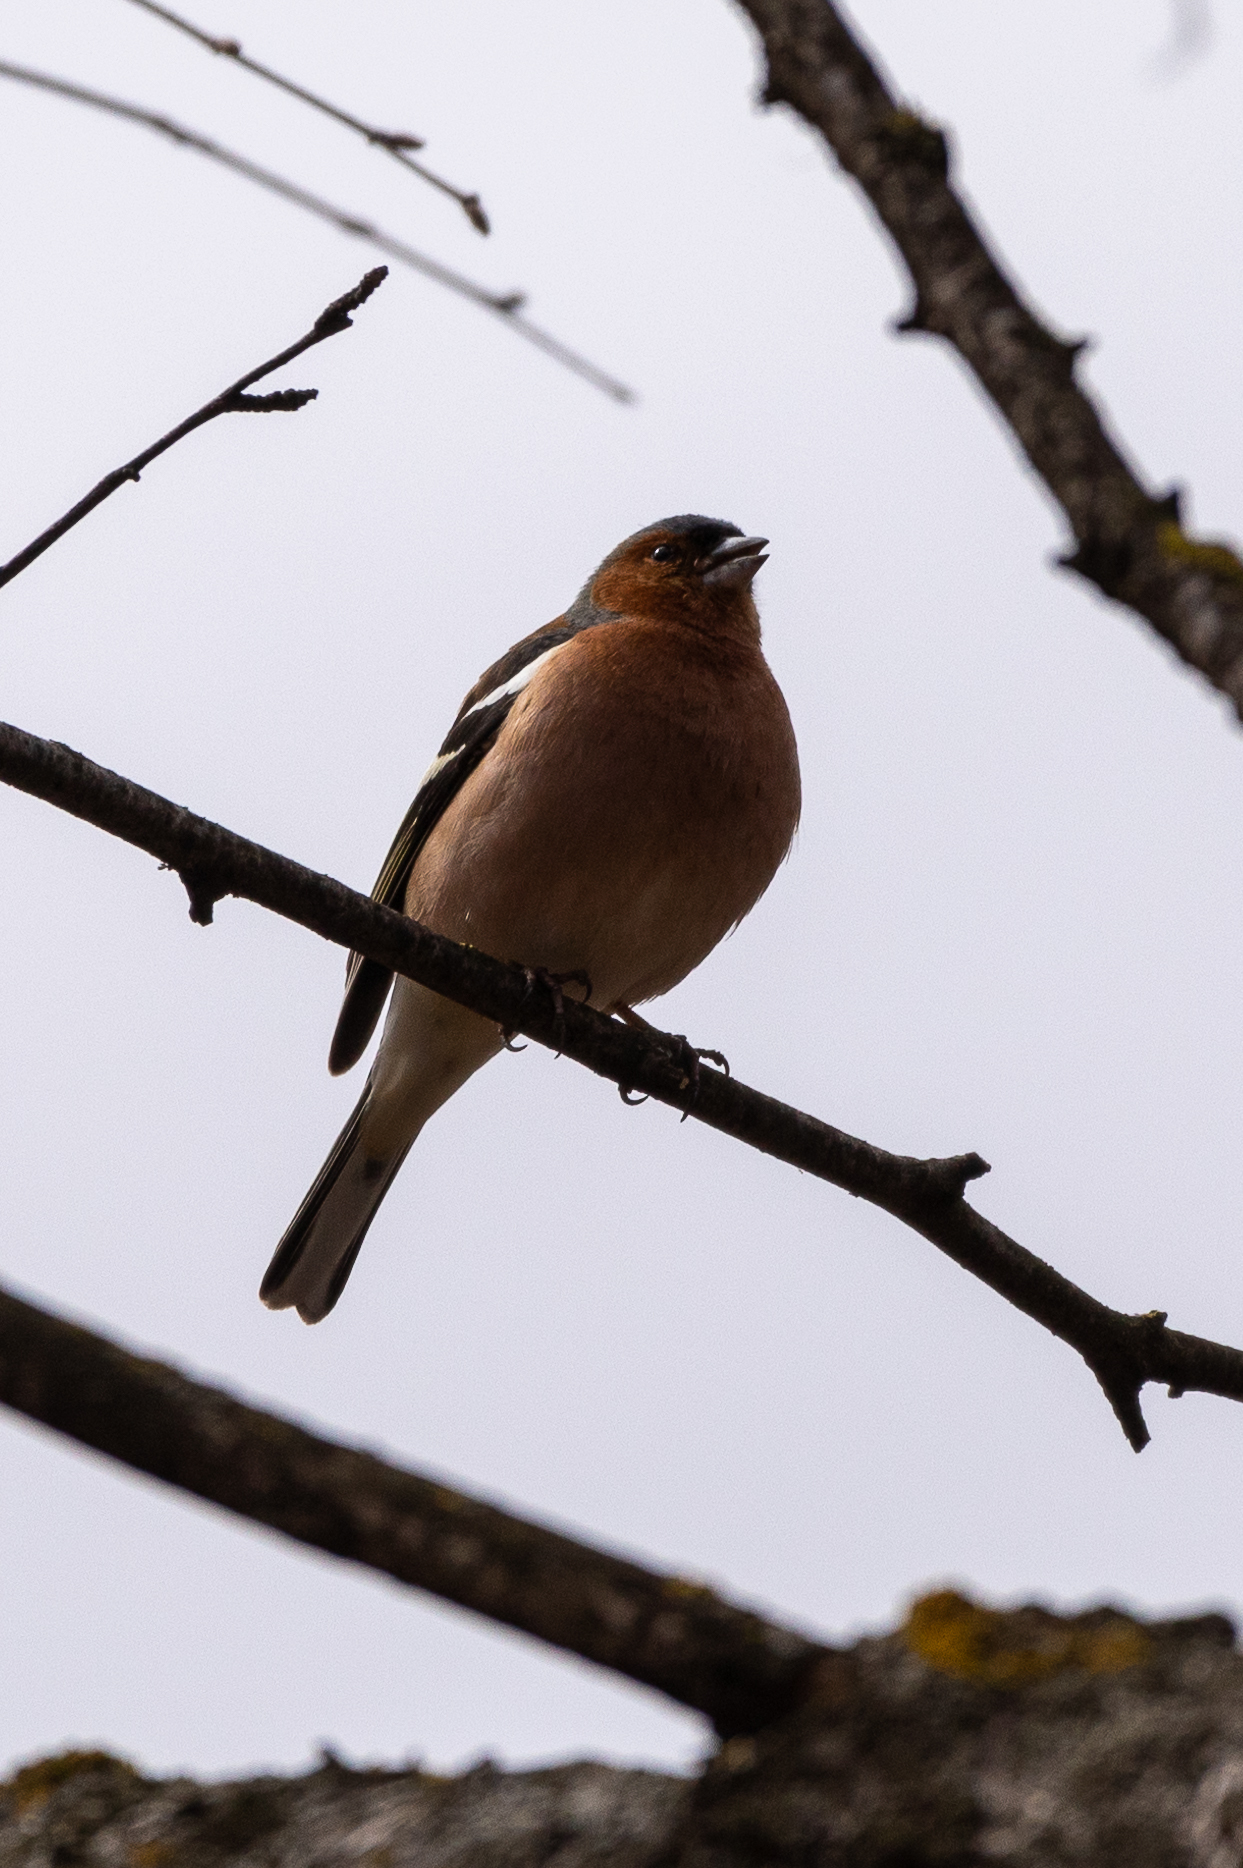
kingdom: Animalia
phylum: Chordata
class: Aves
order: Passeriformes
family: Fringillidae
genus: Fringilla
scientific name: Fringilla coelebs
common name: Common chaffinch
